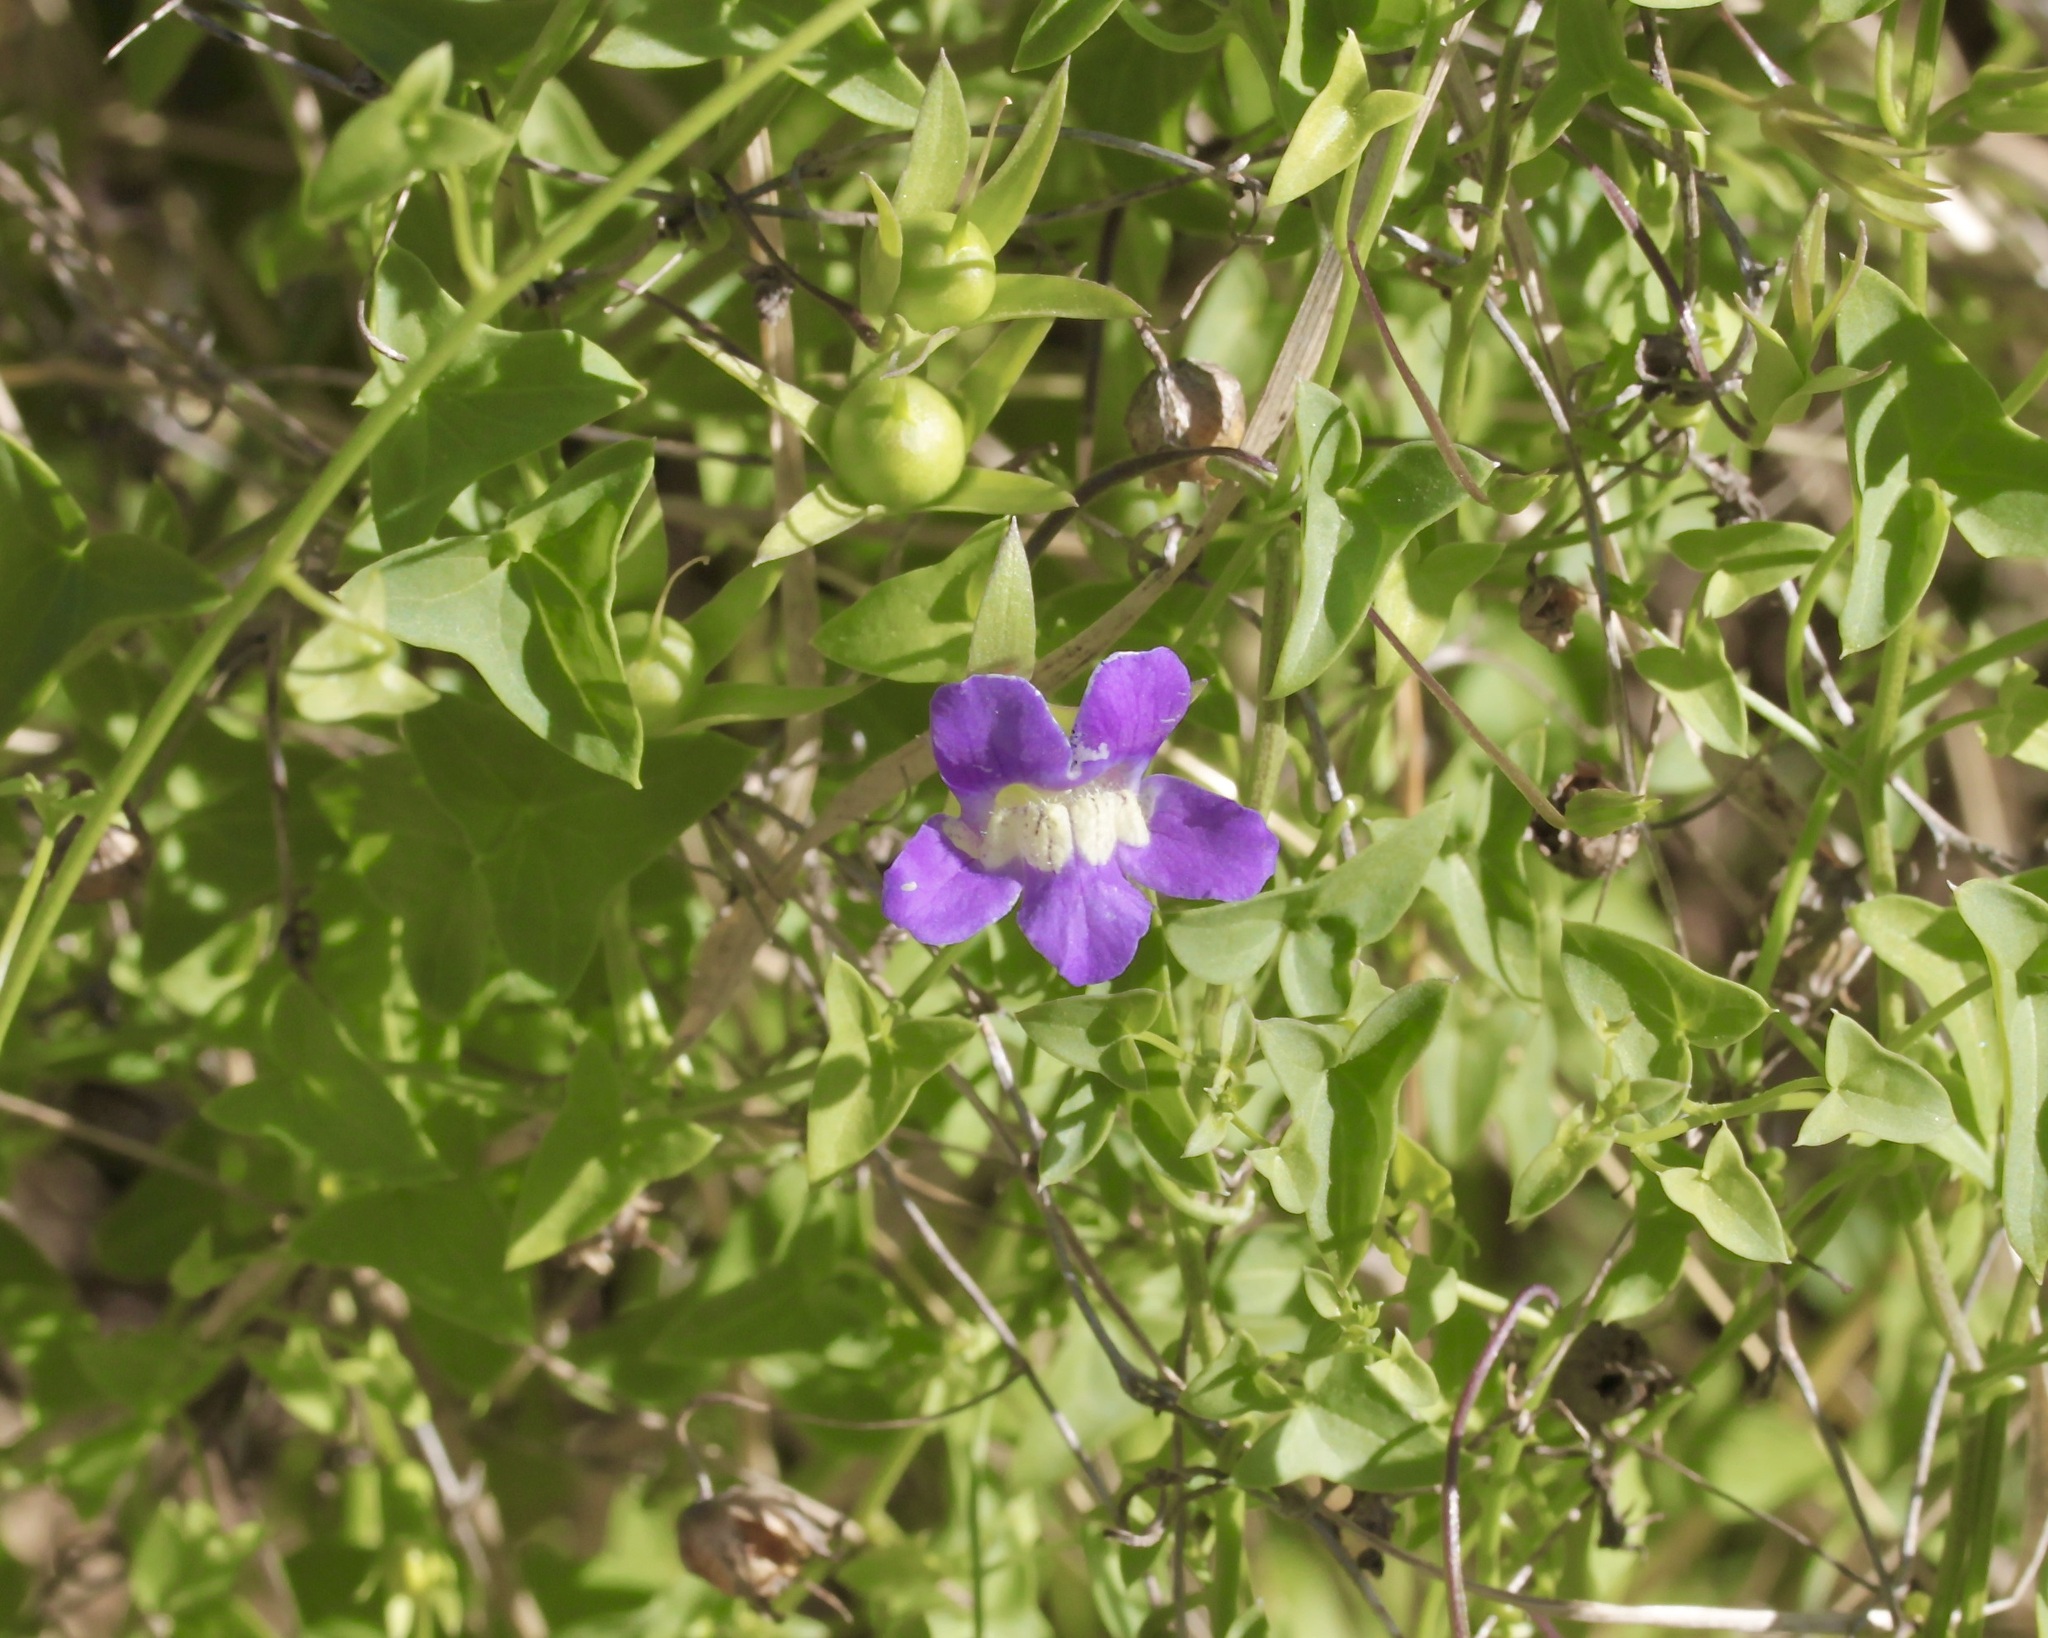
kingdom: Plantae
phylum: Tracheophyta
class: Magnoliopsida
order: Lamiales
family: Plantaginaceae
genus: Maurandella
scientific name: Maurandella antirrhiniflora
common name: Violet twining-snapdragon
